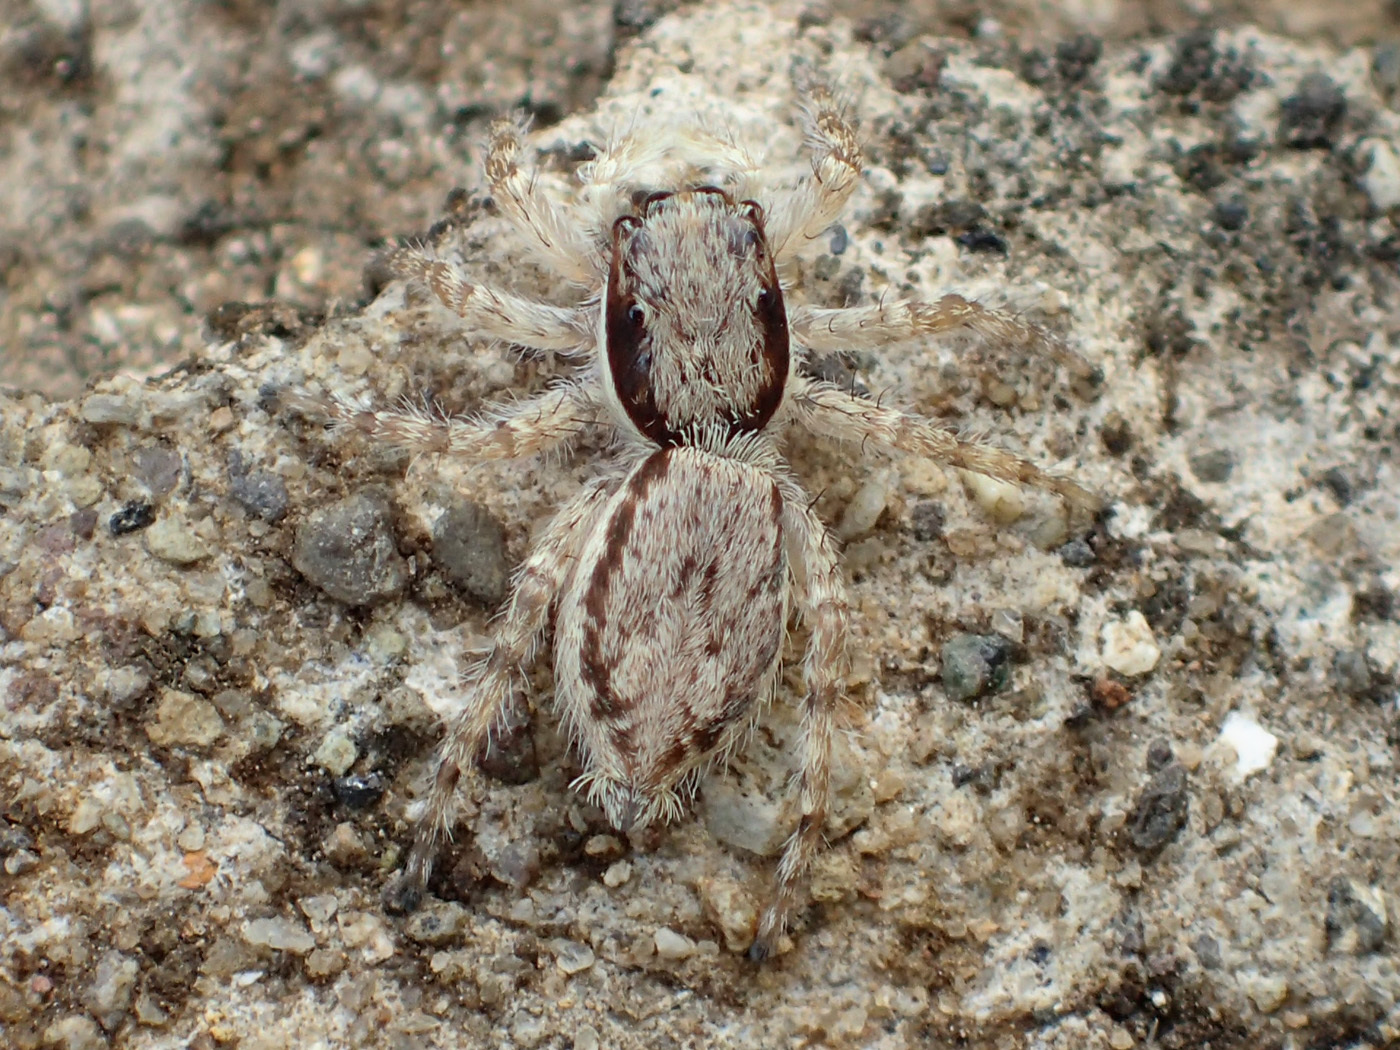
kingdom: Animalia
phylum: Arthropoda
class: Arachnida
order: Araneae
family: Salticidae
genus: Menemerus
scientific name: Menemerus bivittatus
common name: Gray wall jumper
